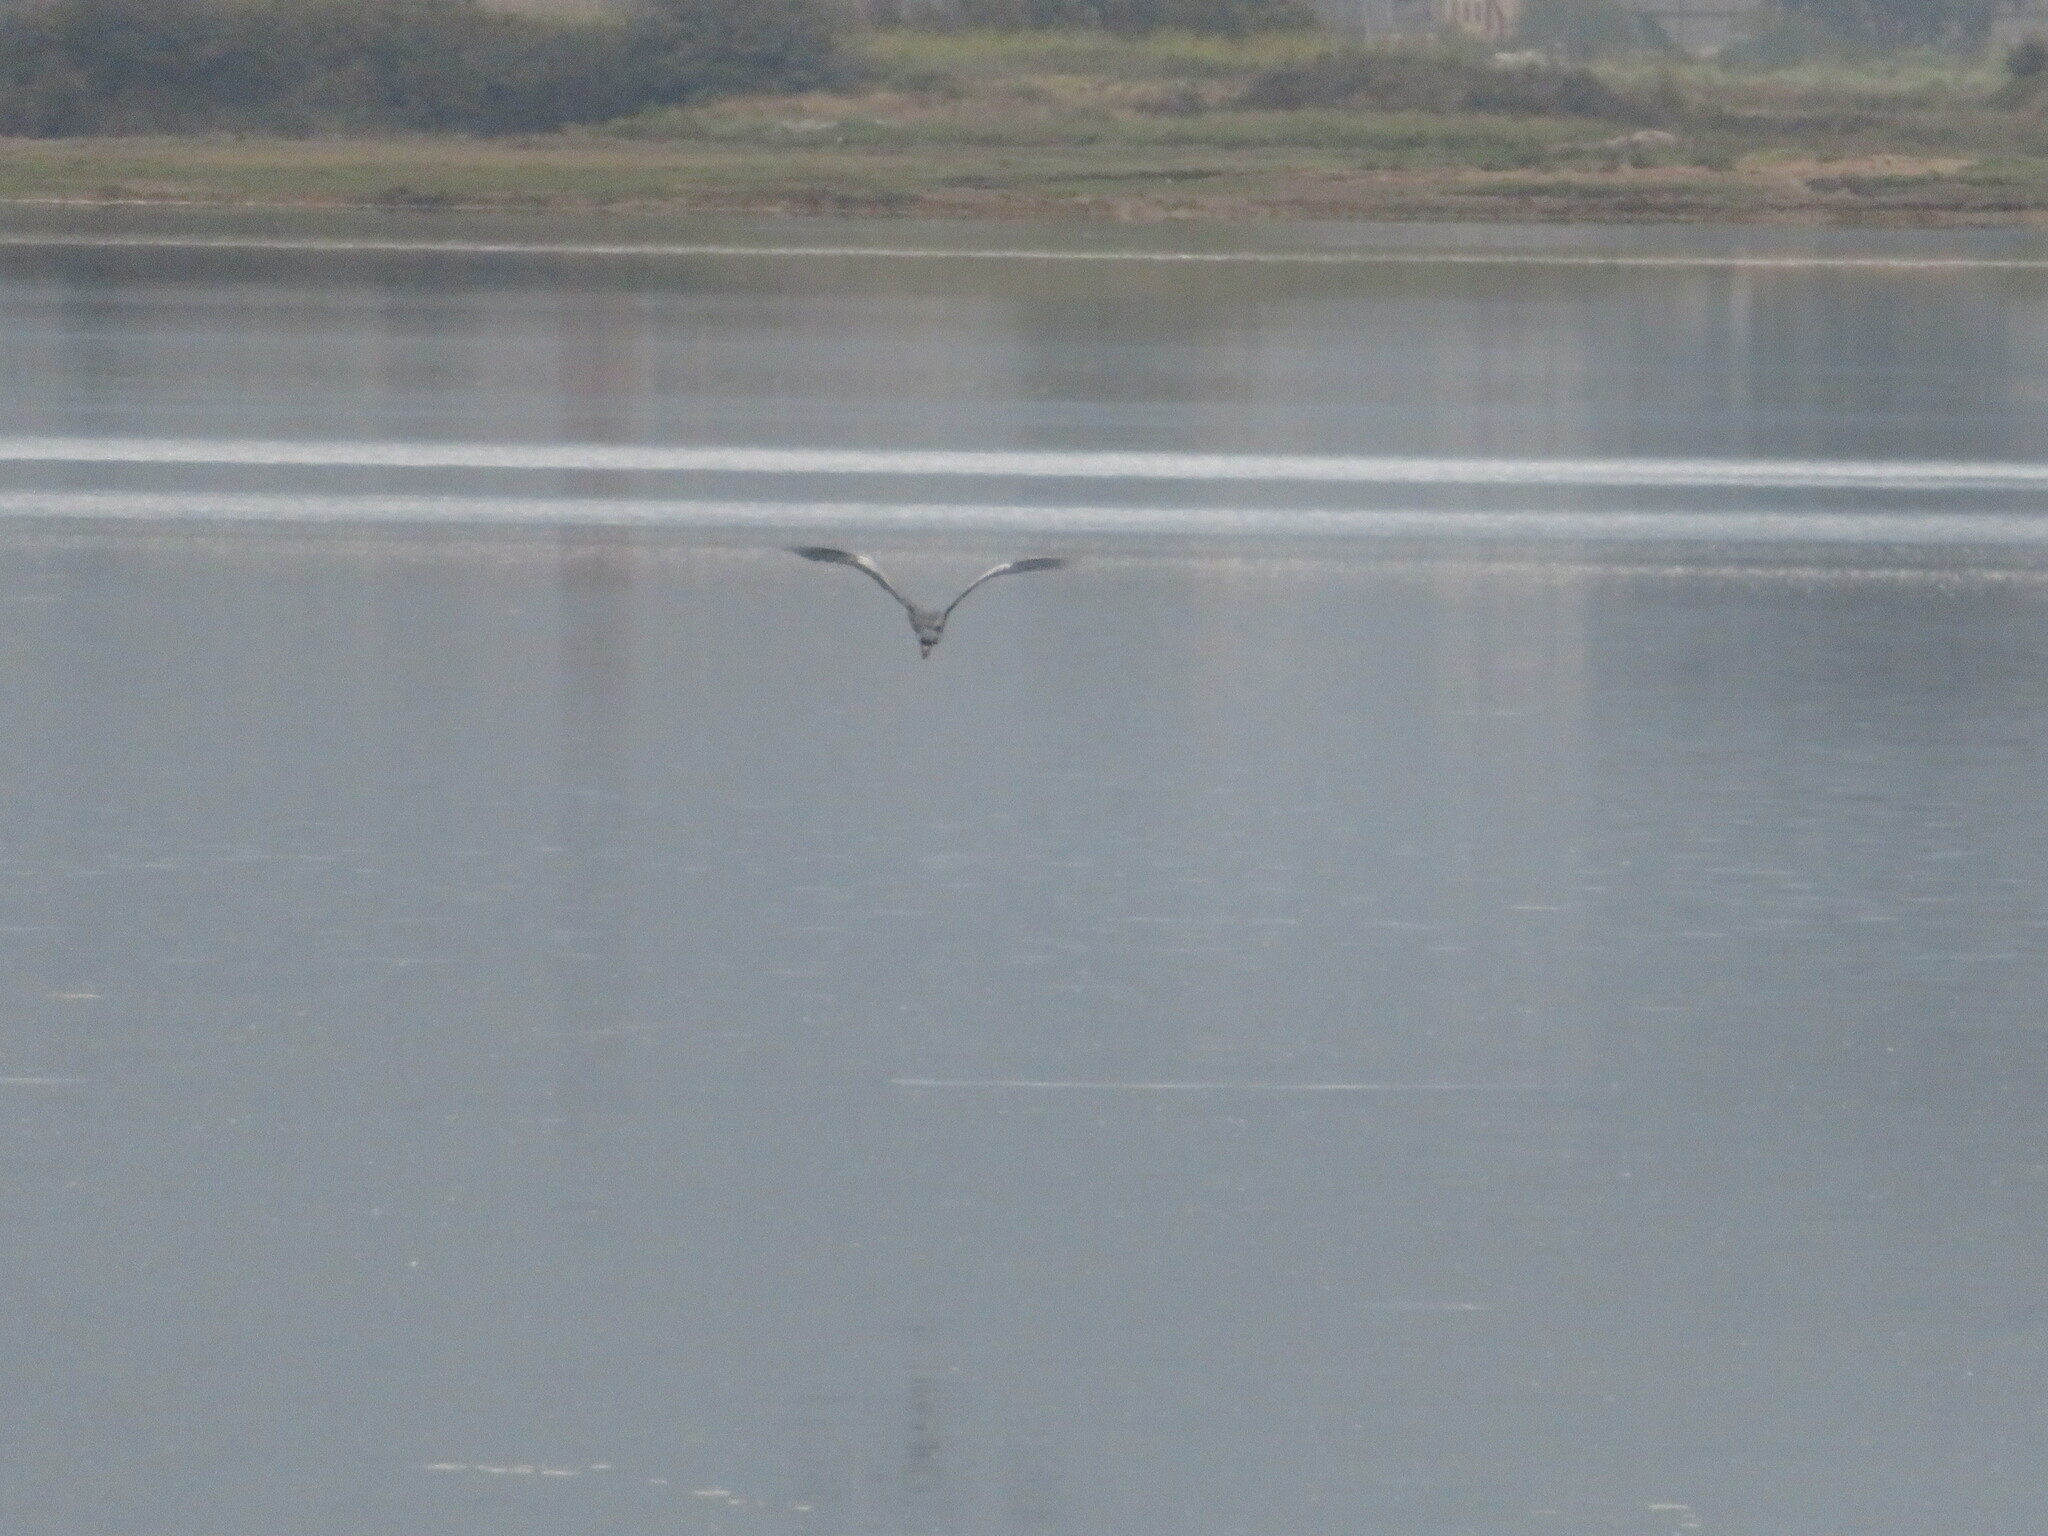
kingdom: Animalia
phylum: Chordata
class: Aves
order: Pelecaniformes
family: Ardeidae
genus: Ardea
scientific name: Ardea cinerea
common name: Grey heron
